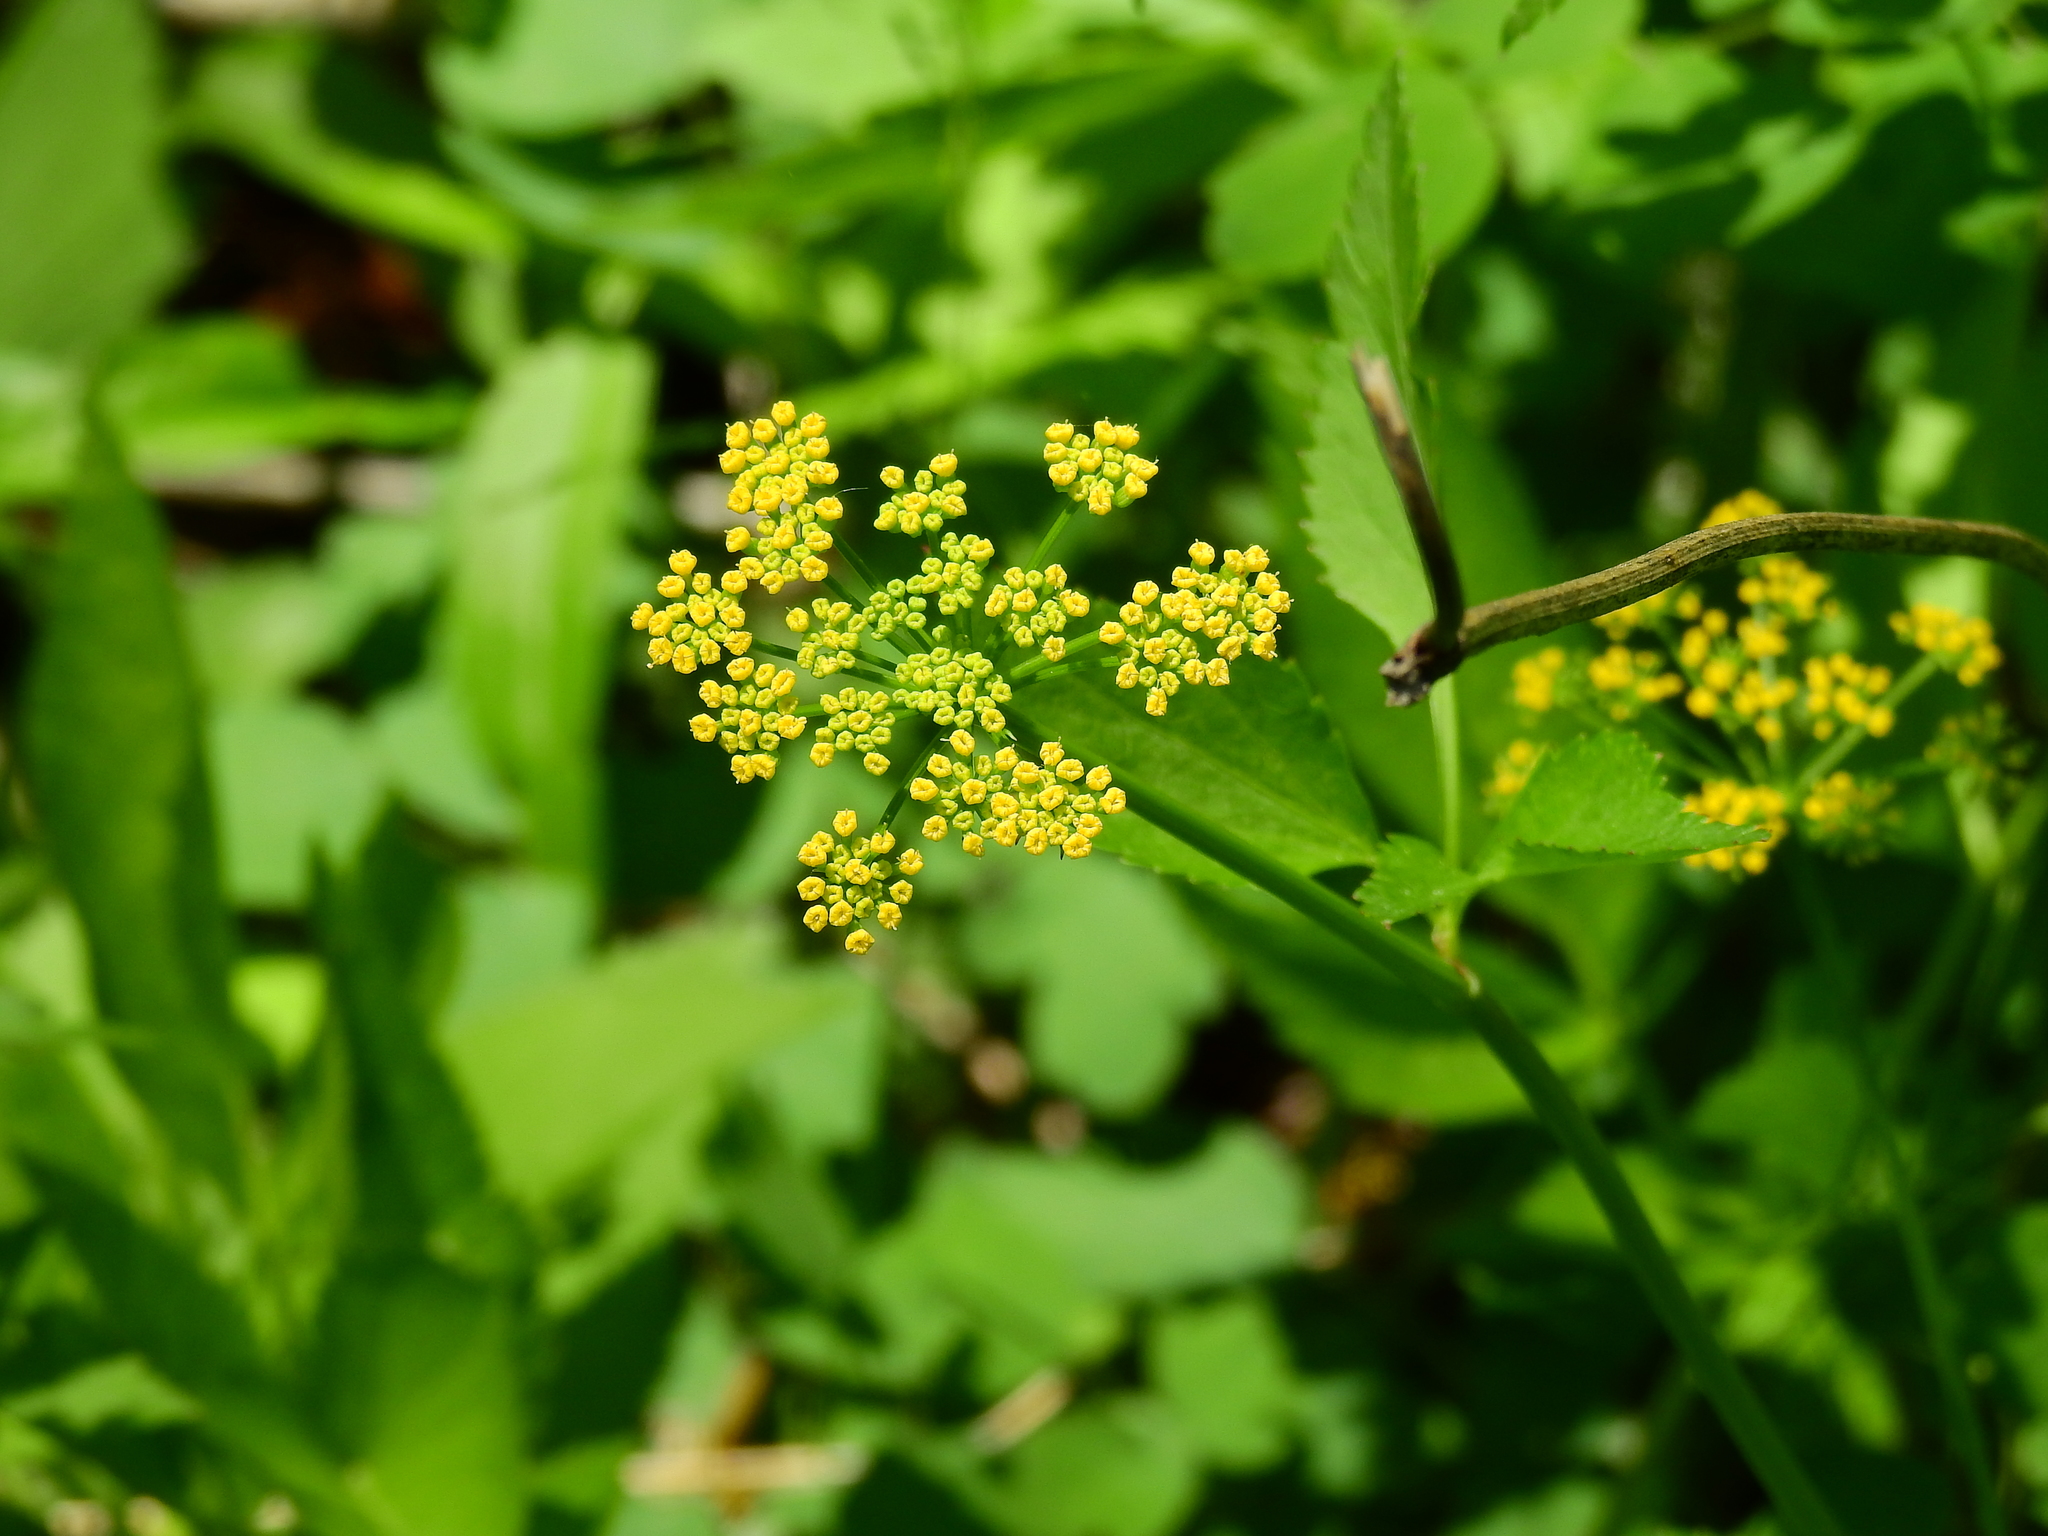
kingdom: Plantae
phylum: Tracheophyta
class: Magnoliopsida
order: Apiales
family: Apiaceae
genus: Zizia
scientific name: Zizia aurea
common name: Golden alexanders
